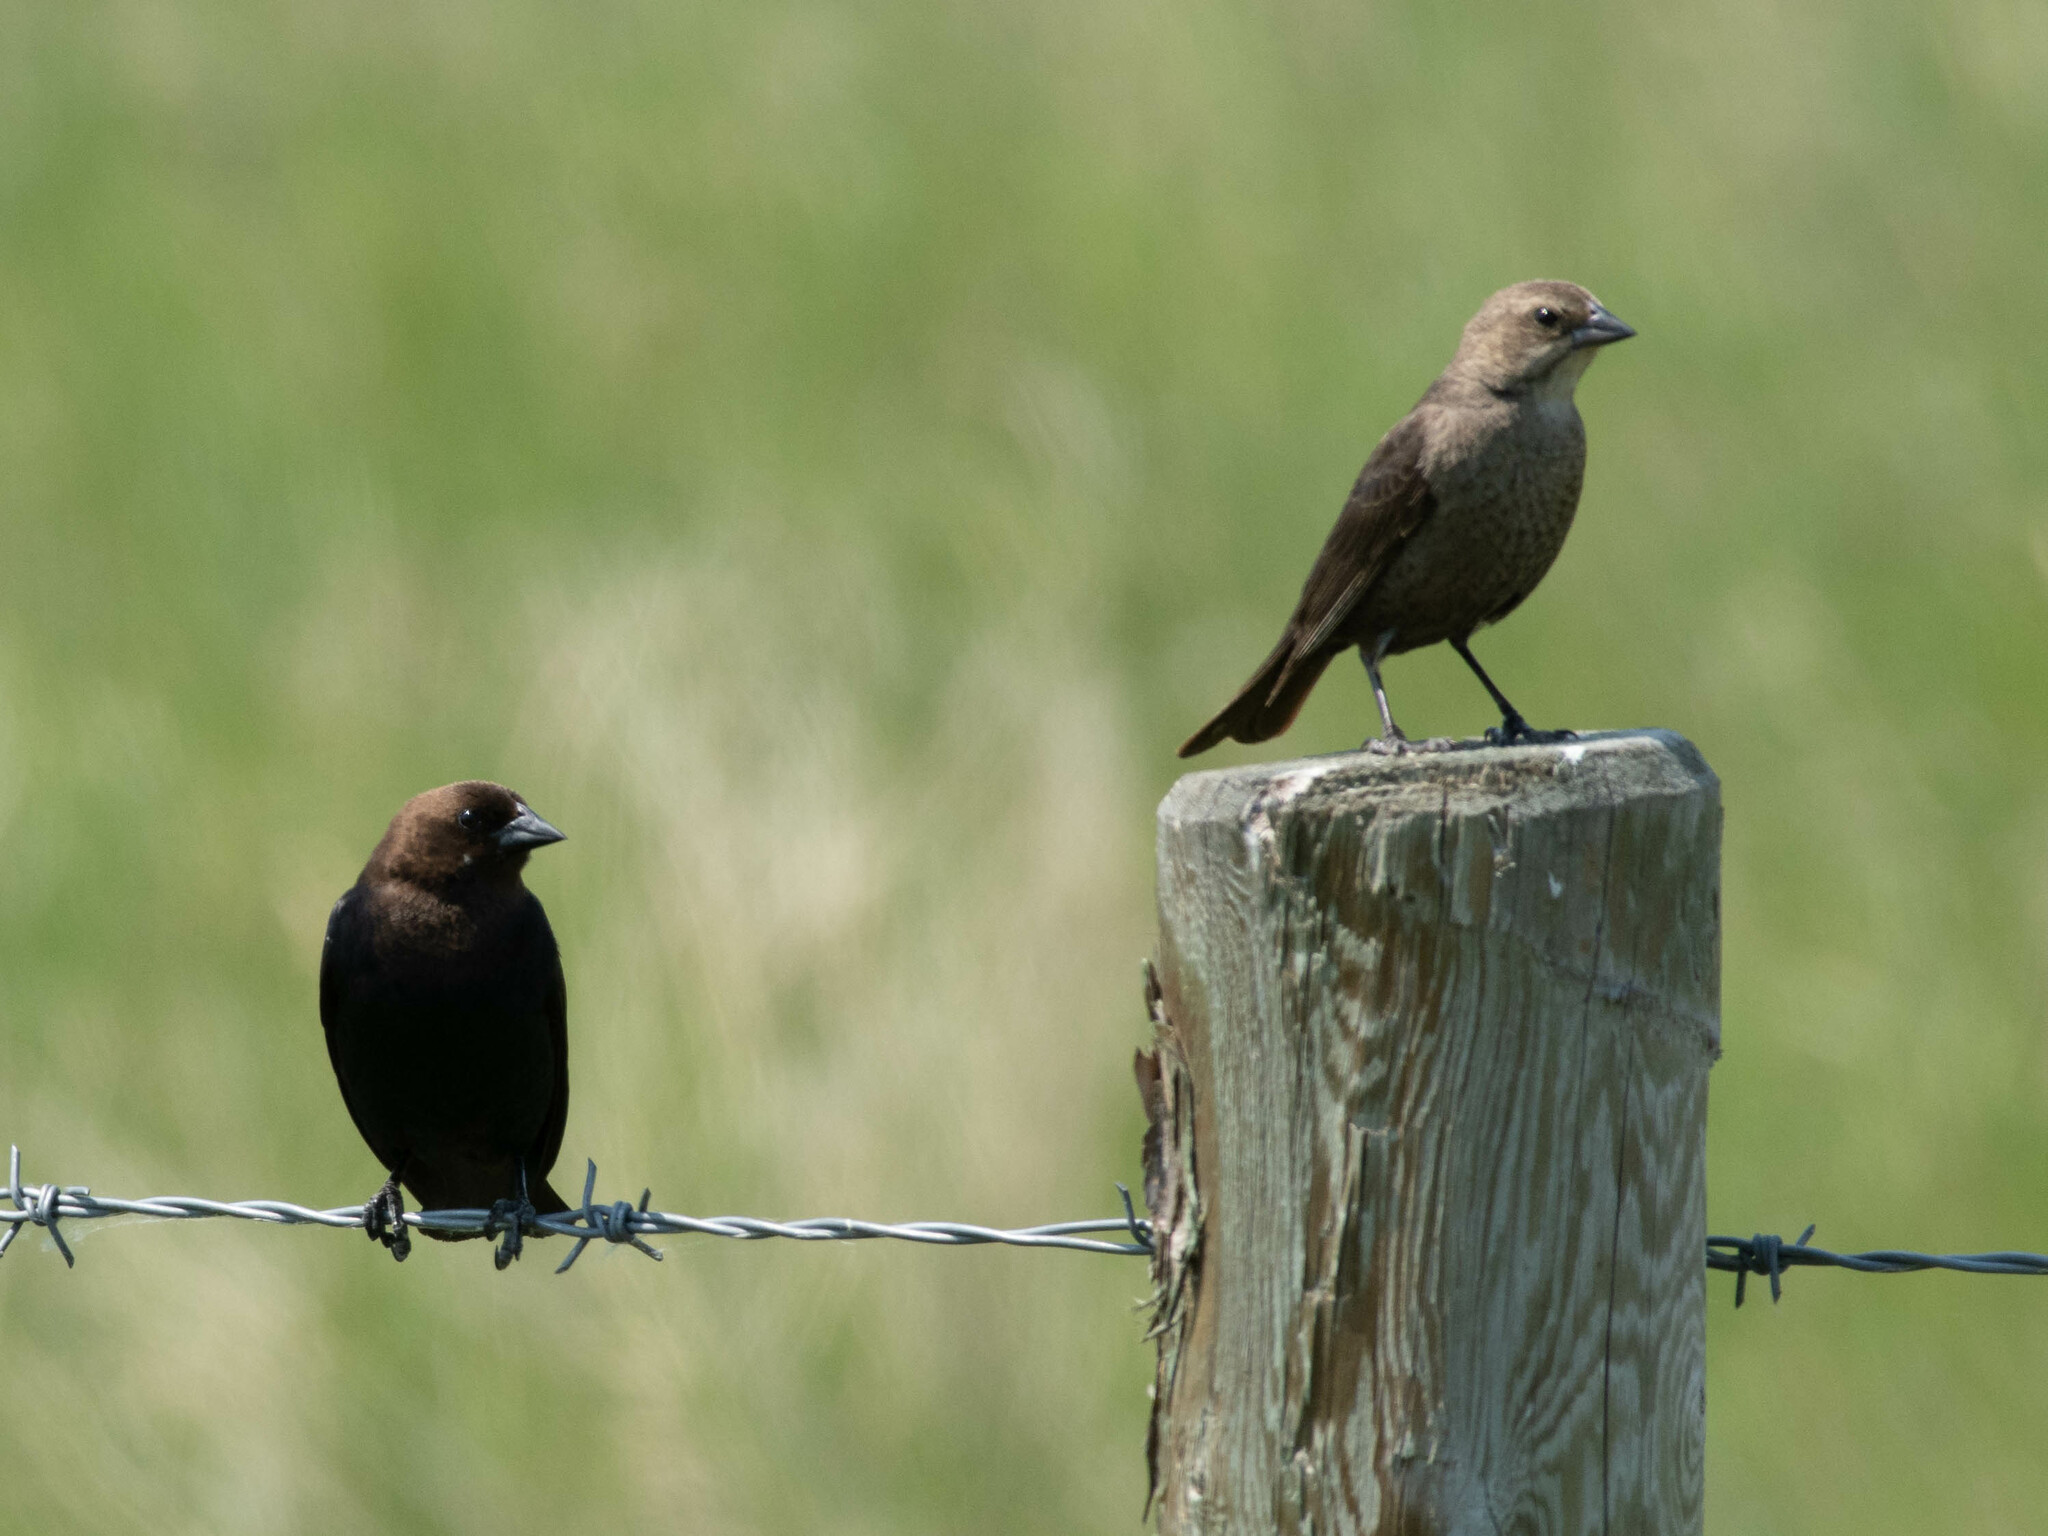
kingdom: Animalia
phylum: Chordata
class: Aves
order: Passeriformes
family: Icteridae
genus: Molothrus
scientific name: Molothrus ater
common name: Brown-headed cowbird
